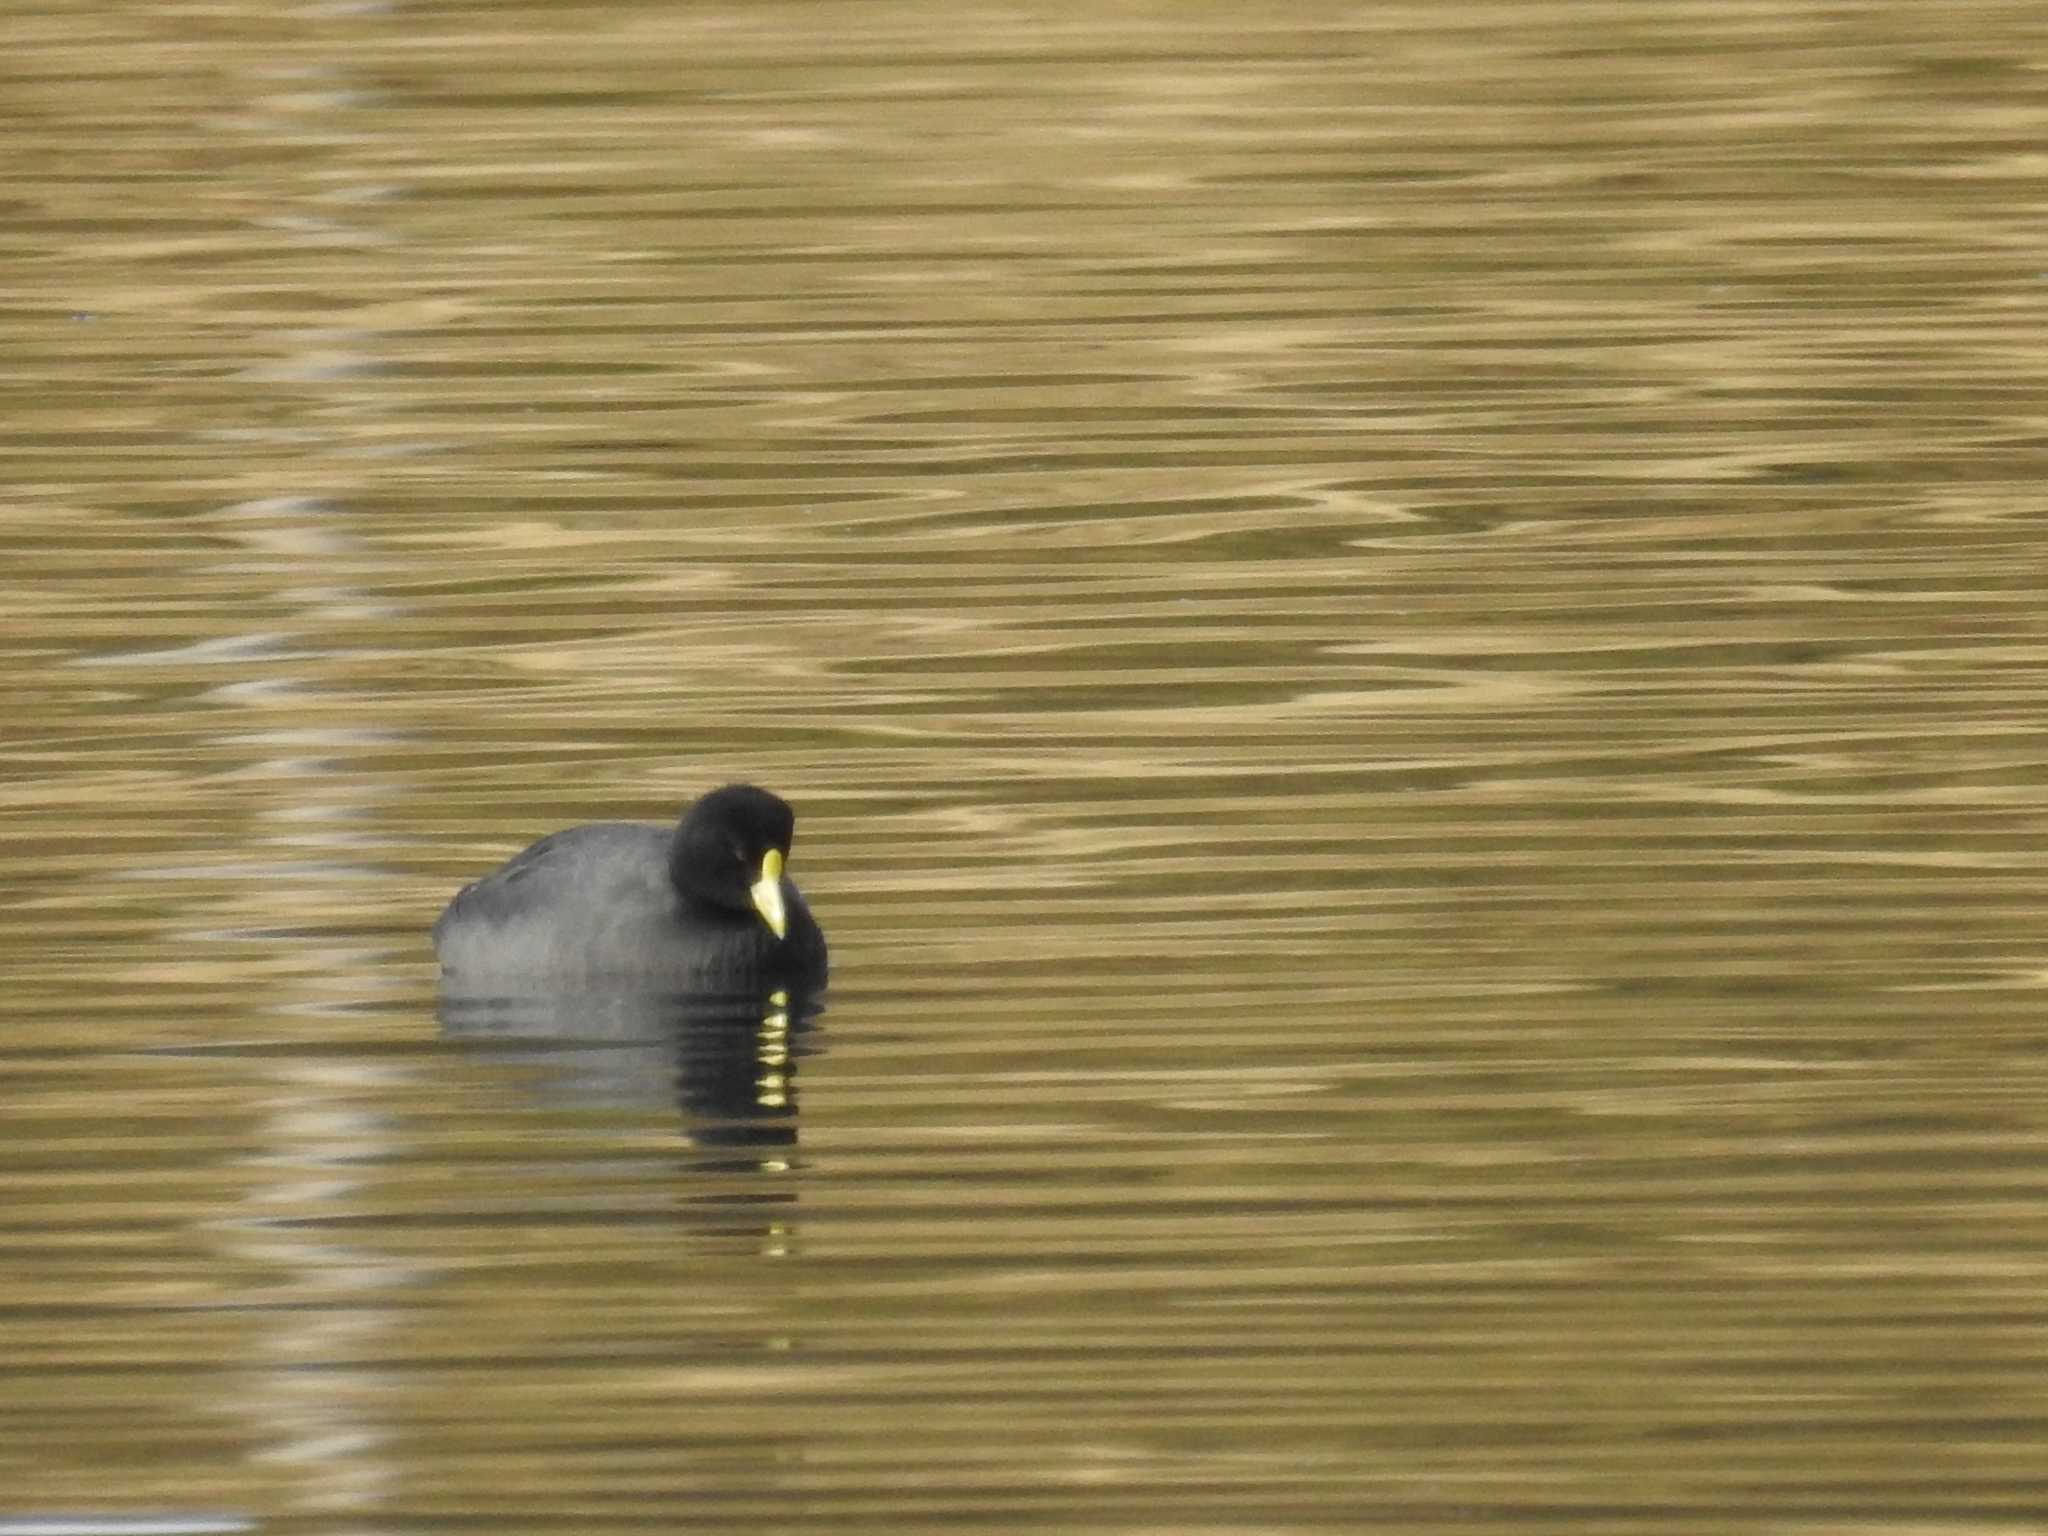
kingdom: Animalia
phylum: Chordata
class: Aves
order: Gruiformes
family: Rallidae
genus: Fulica
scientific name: Fulica leucoptera
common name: White-winged coot
